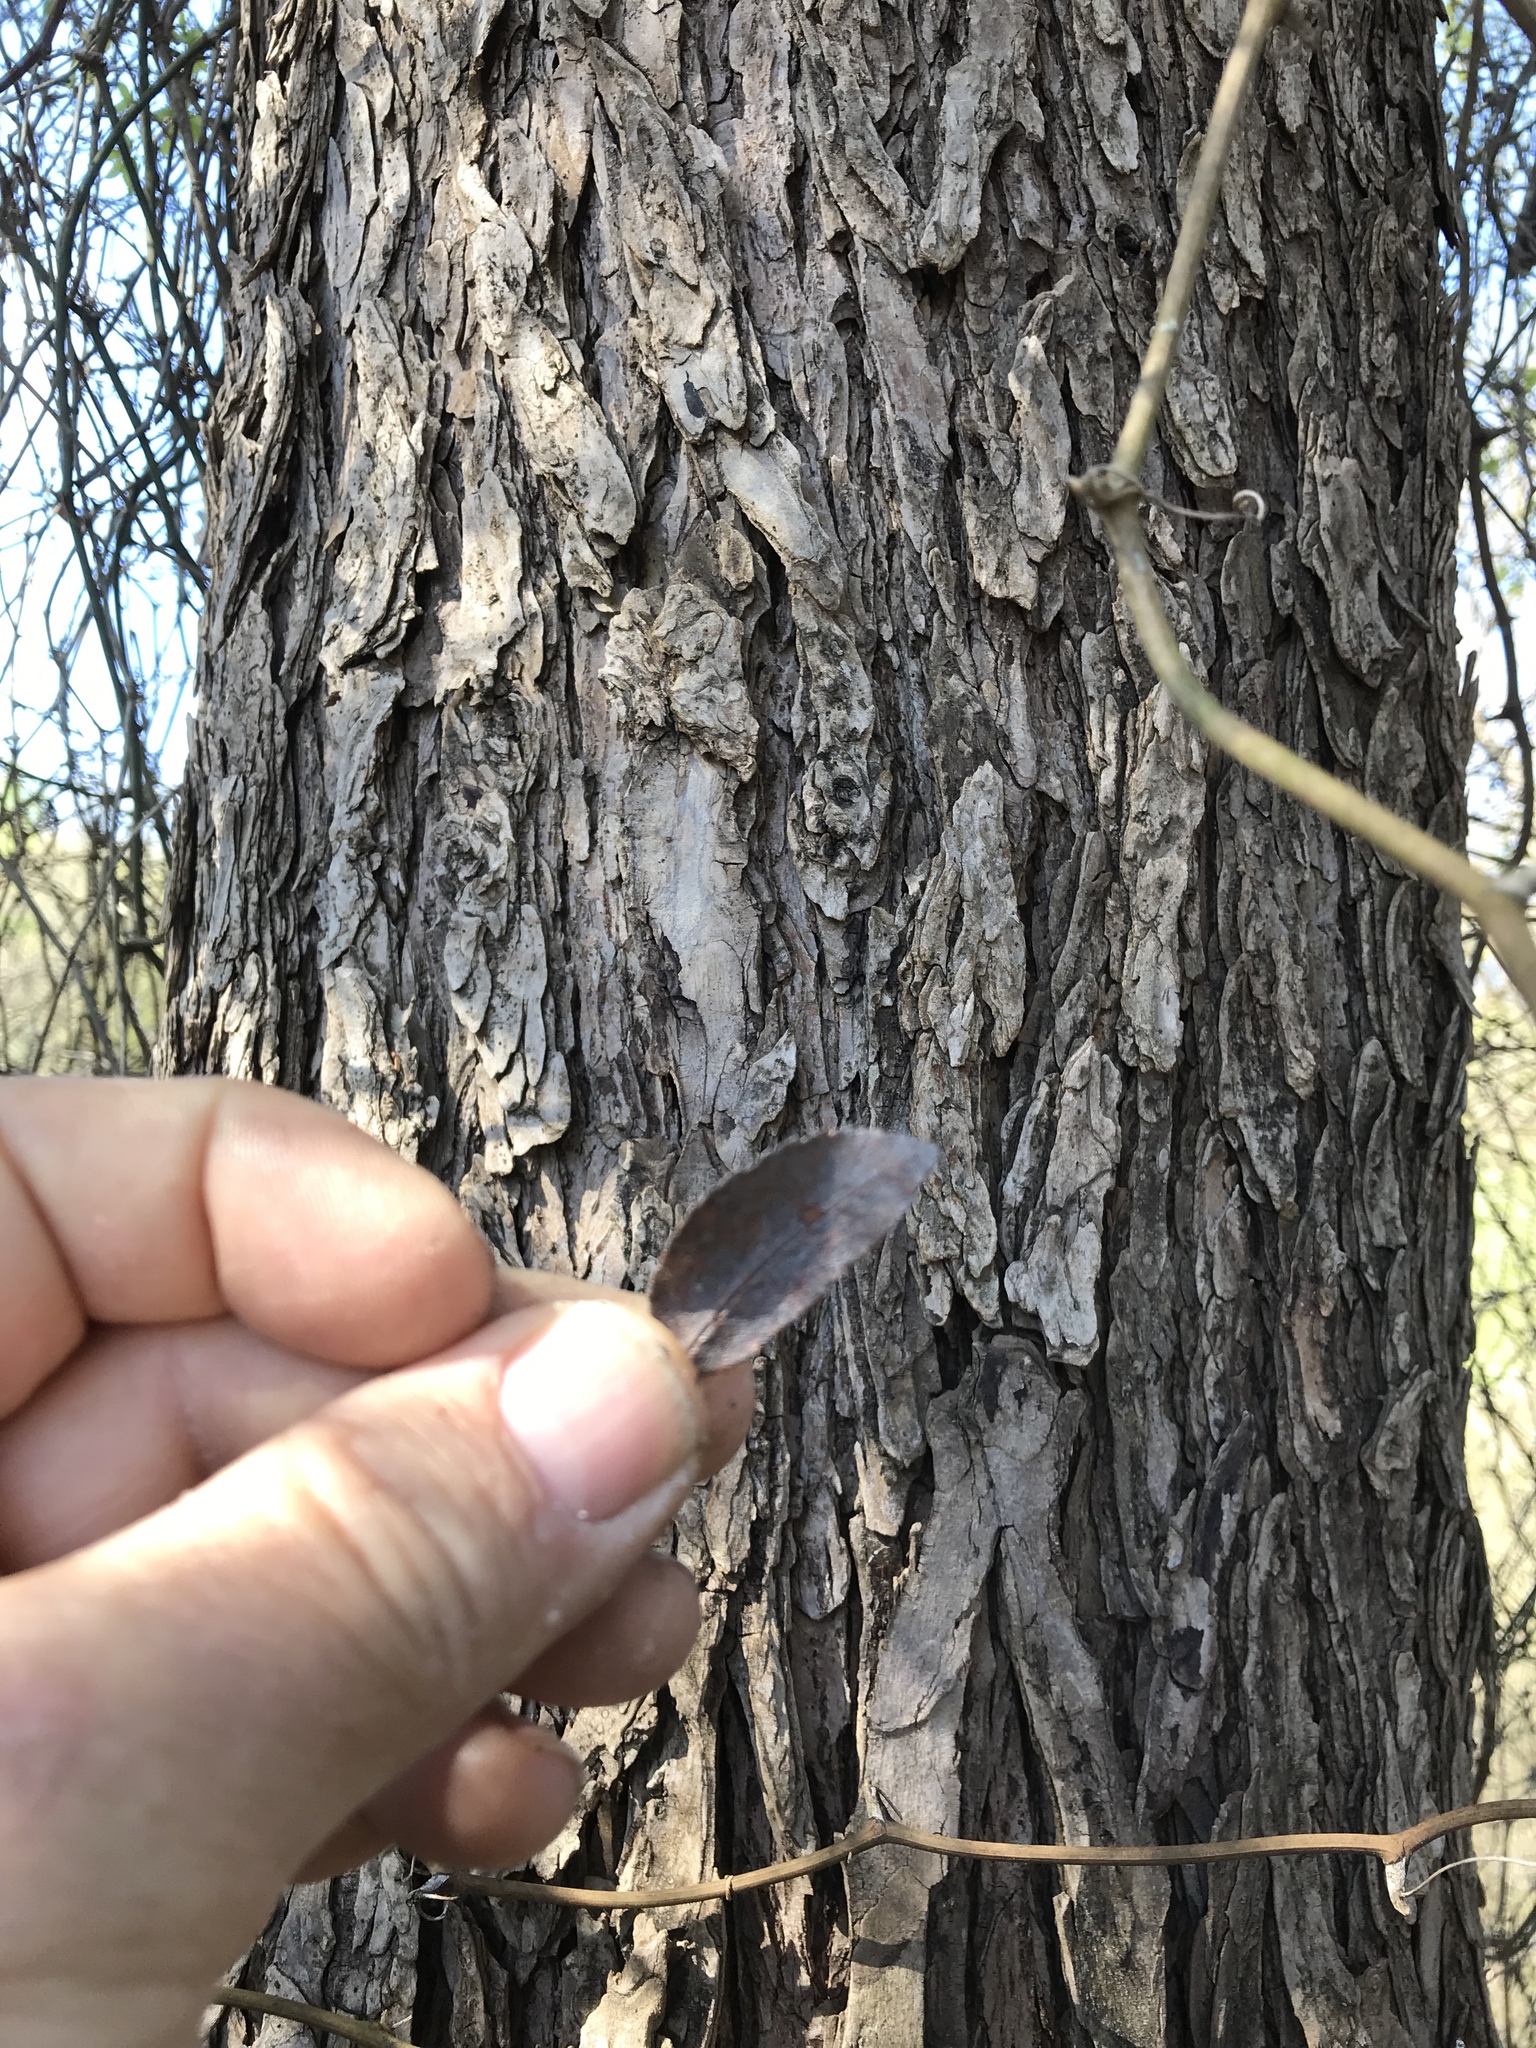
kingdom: Plantae
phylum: Tracheophyta
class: Magnoliopsida
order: Rosales
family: Ulmaceae
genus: Ulmus
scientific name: Ulmus crassifolia
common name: Basket elm
